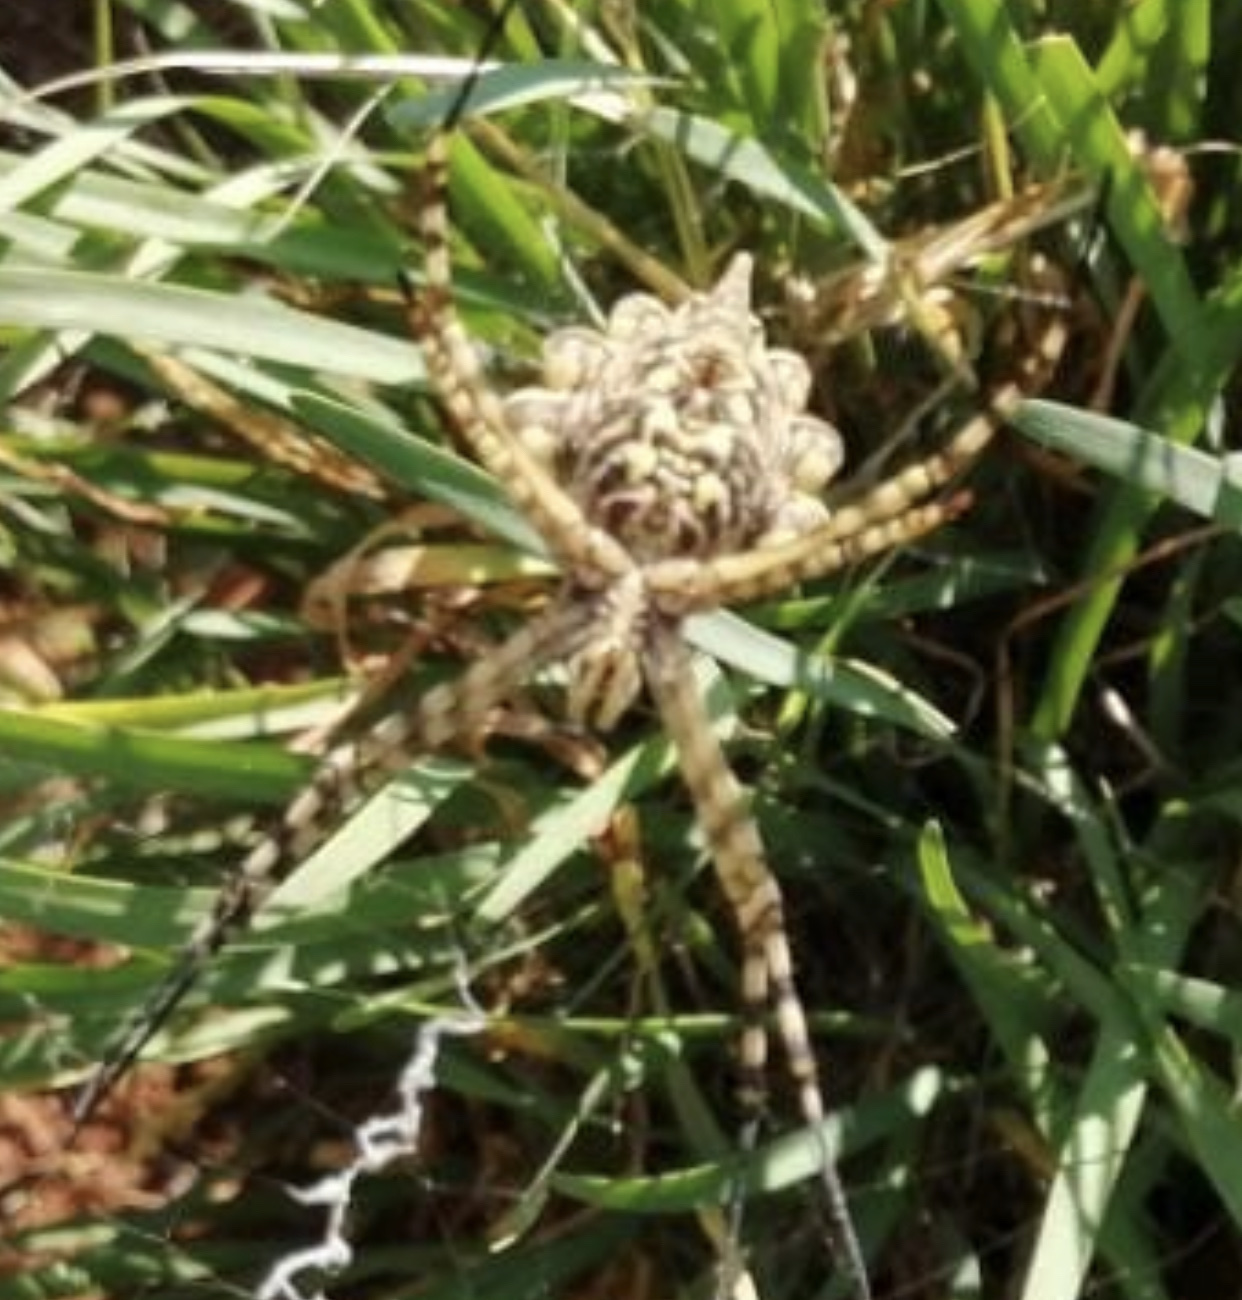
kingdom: Animalia
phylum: Arthropoda
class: Arachnida
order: Araneae
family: Araneidae
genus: Argiope
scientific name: Argiope australis
